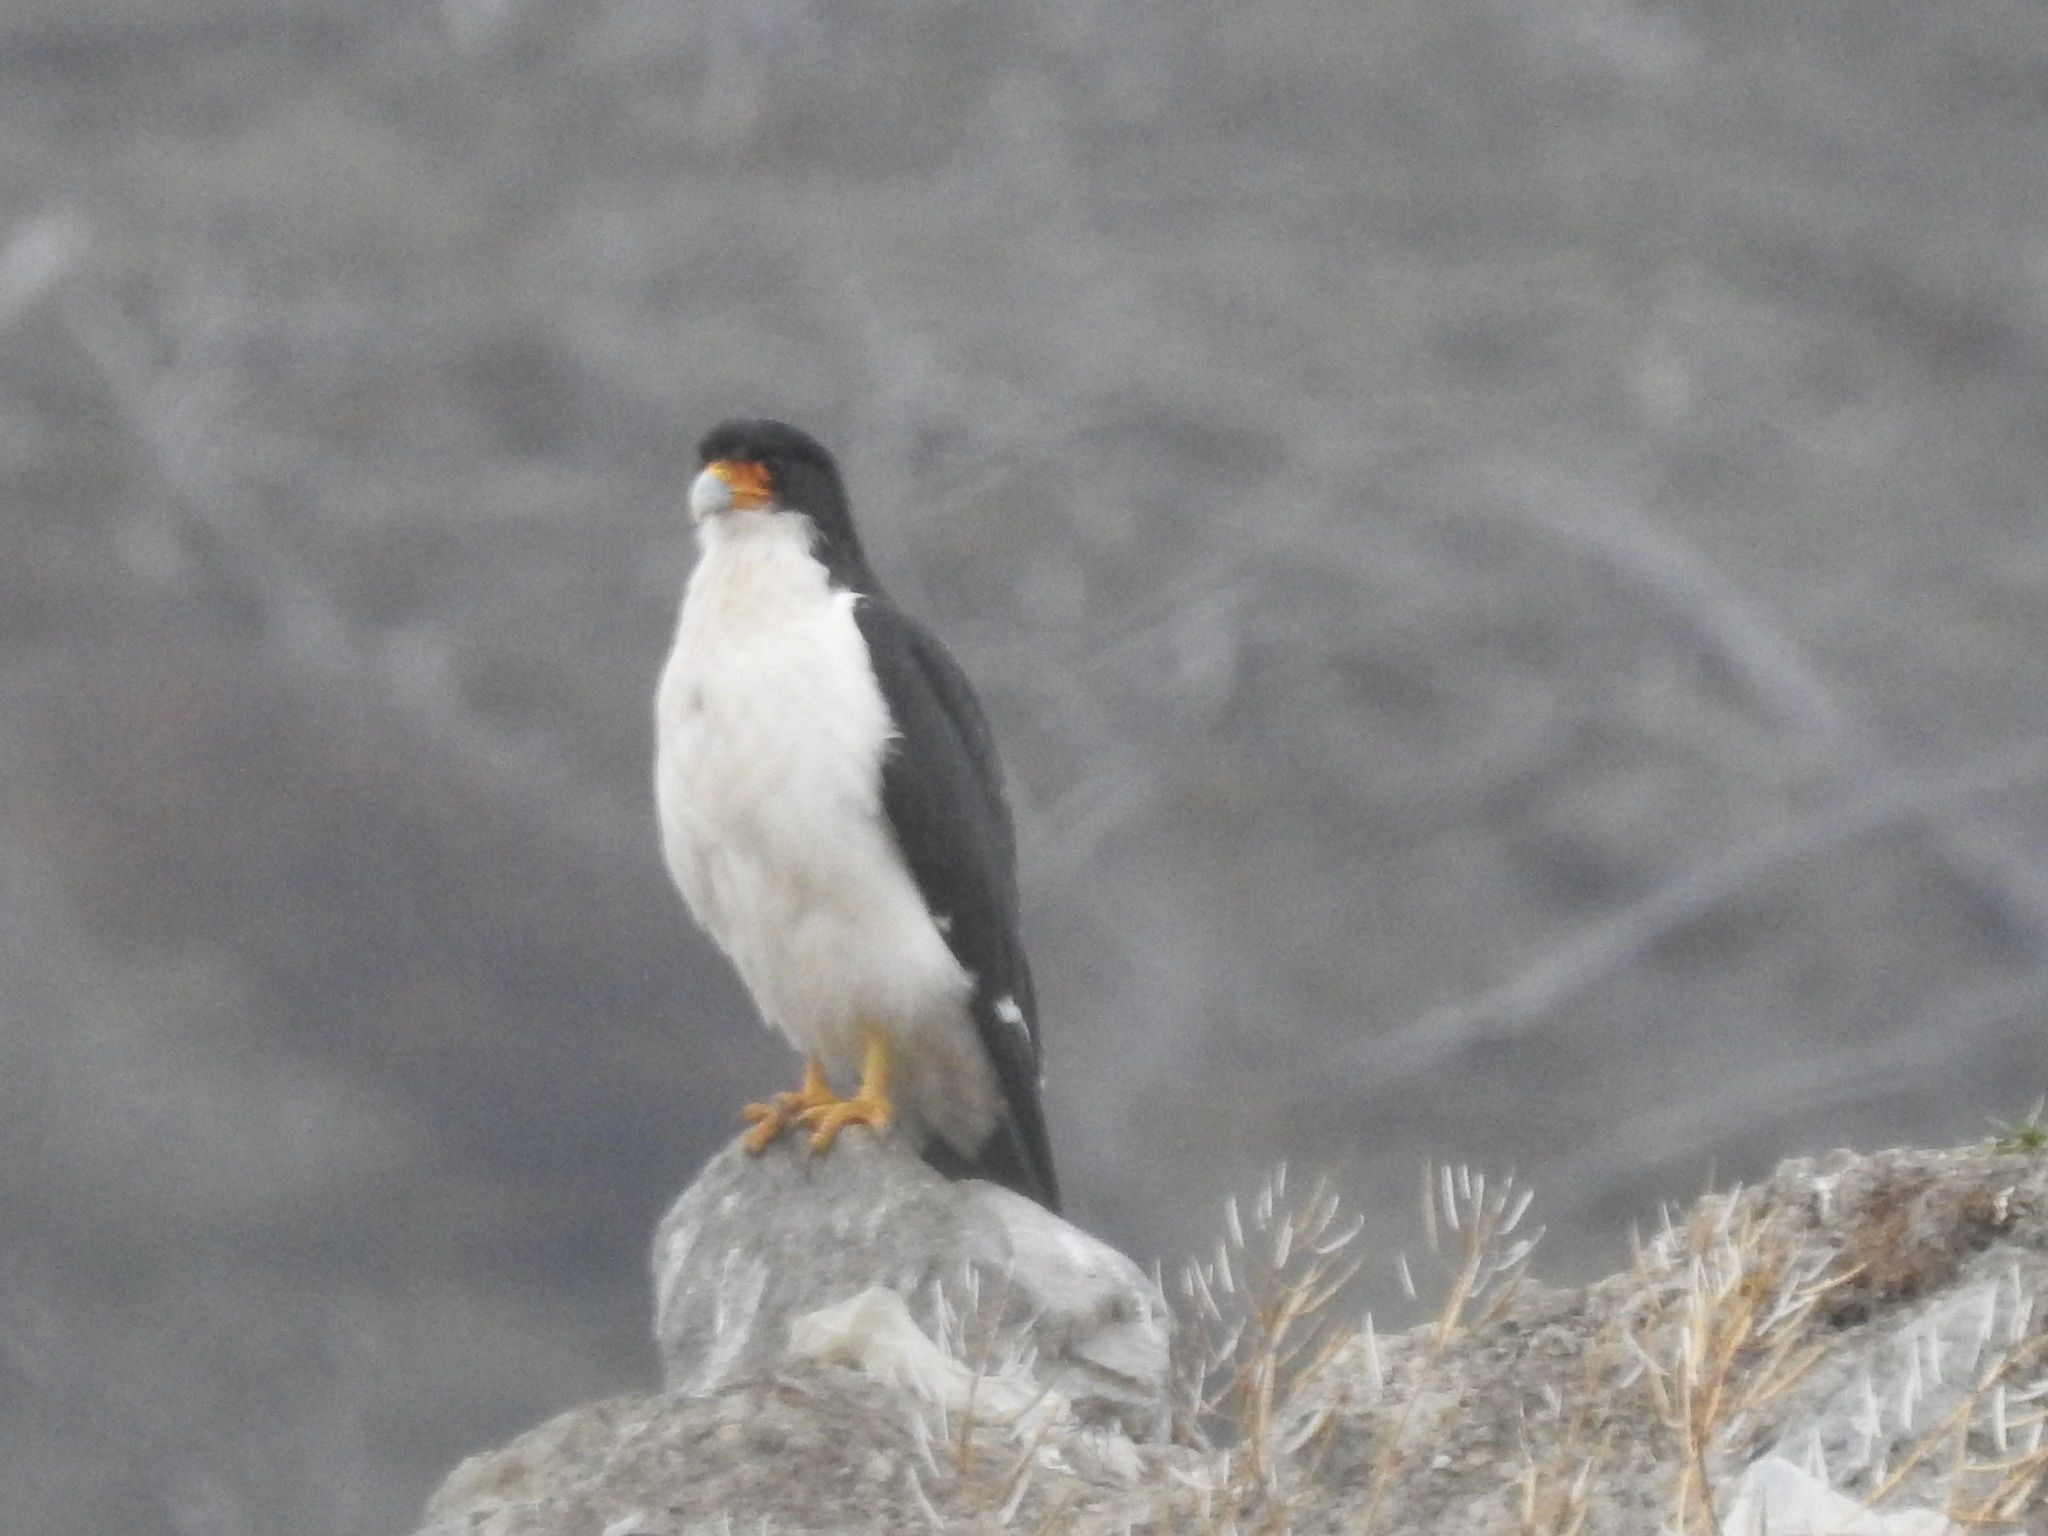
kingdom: Animalia
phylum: Chordata
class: Aves
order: Falconiformes
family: Falconidae
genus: Daptrius
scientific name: Daptrius
